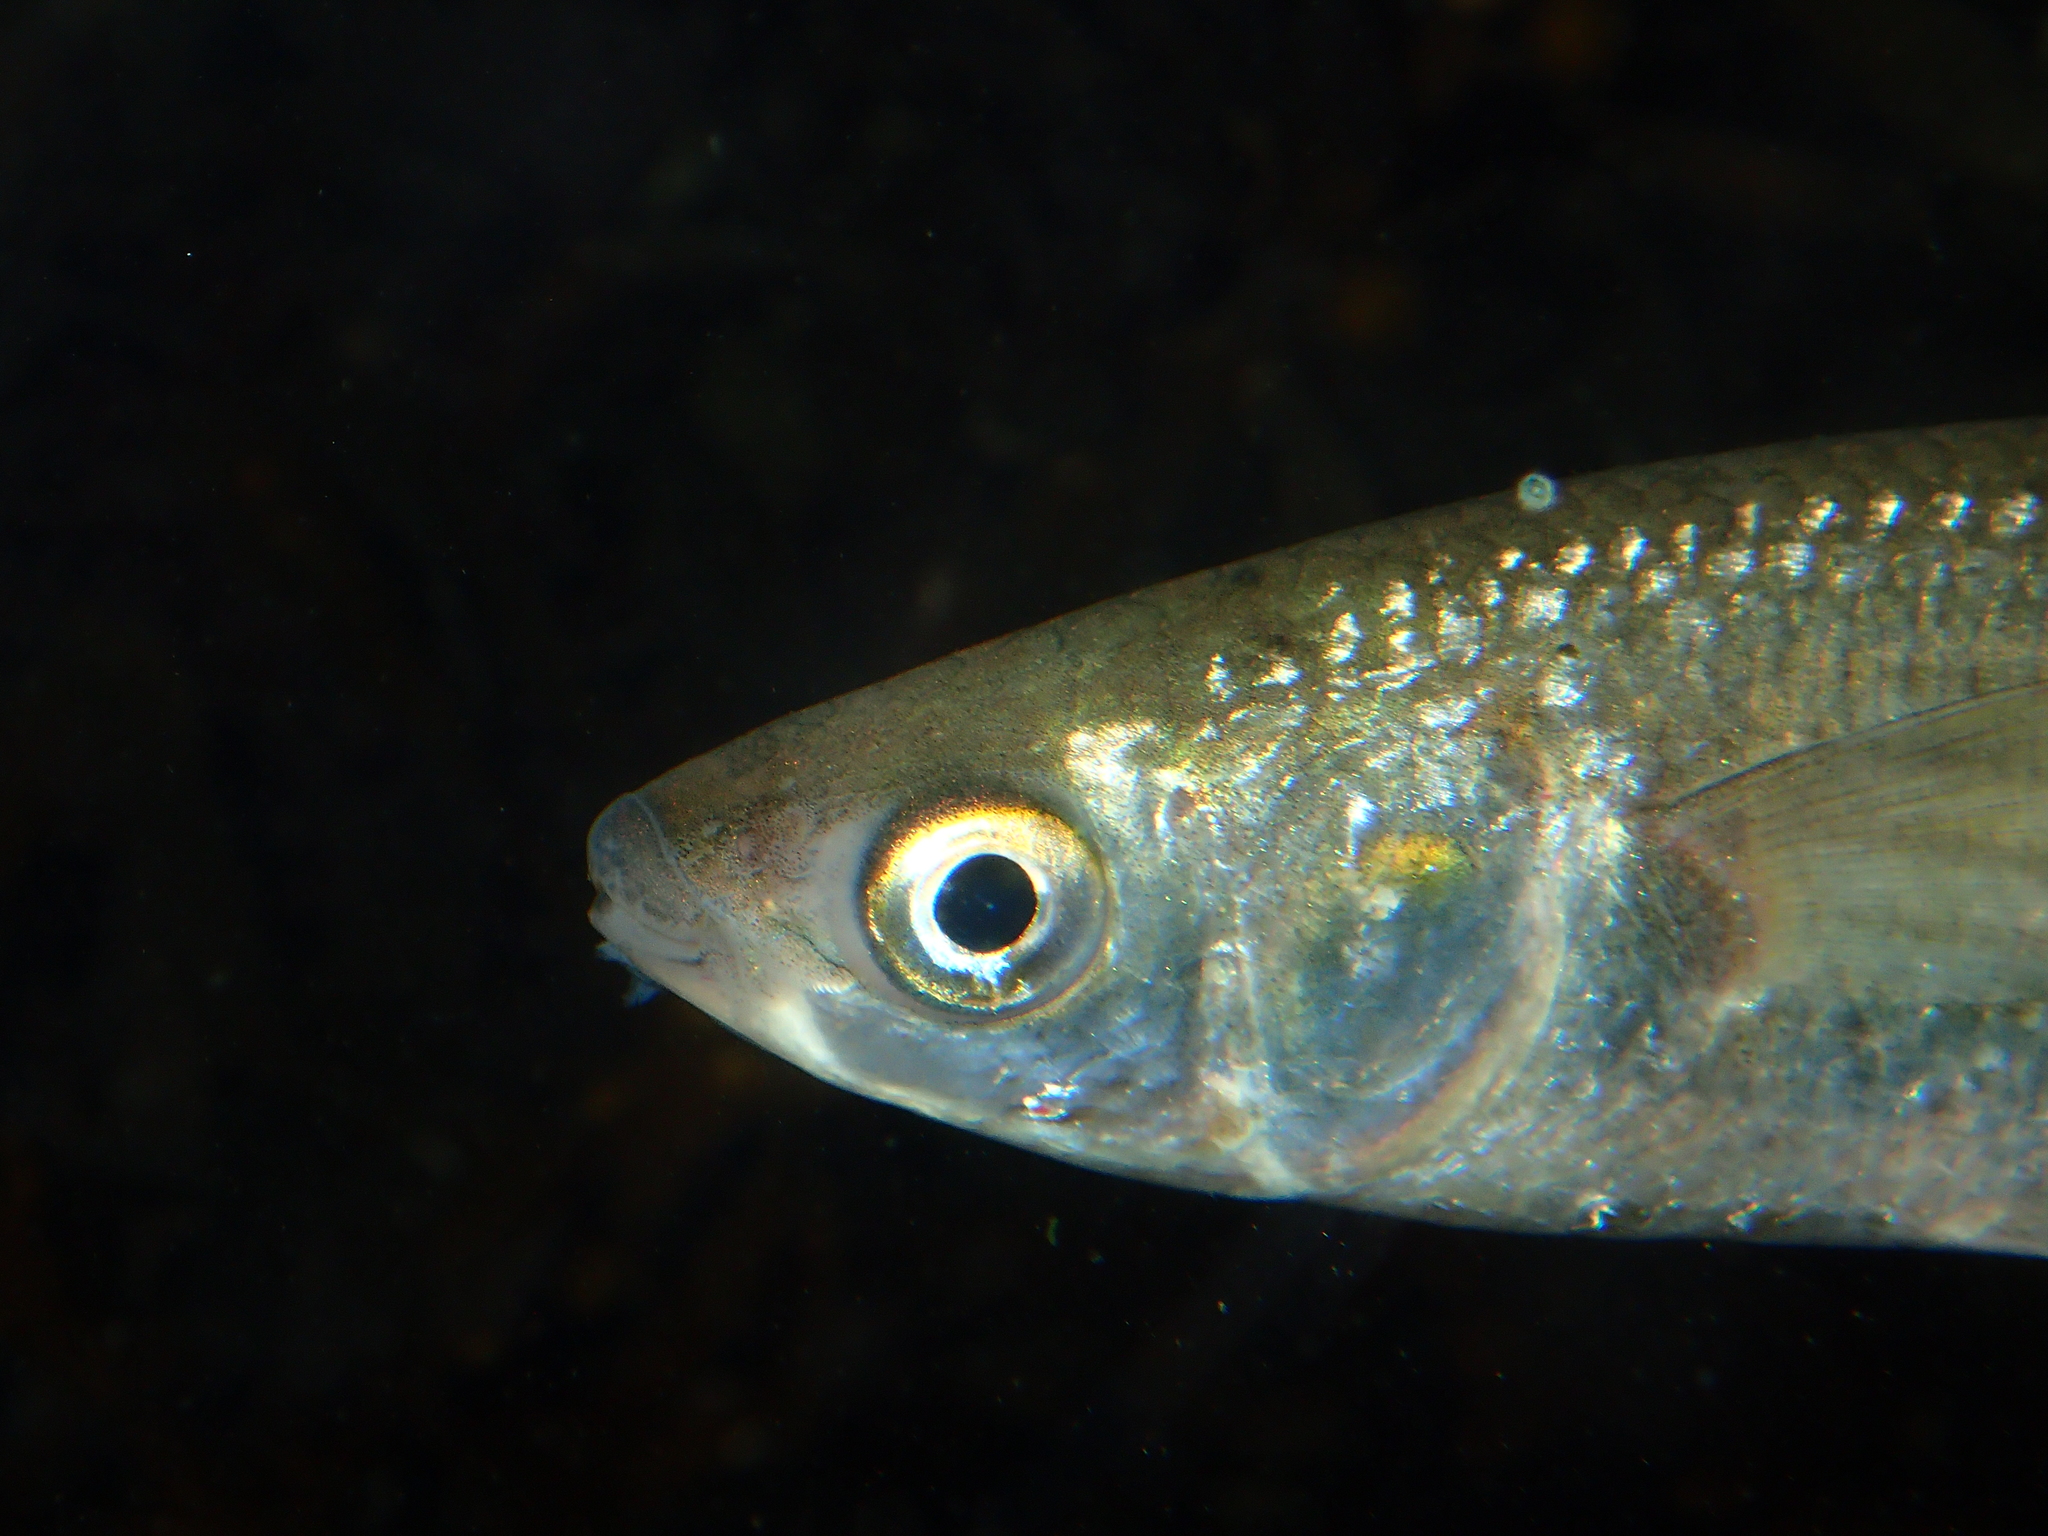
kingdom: Animalia
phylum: Chordata
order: Mugiliformes
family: Mugilidae
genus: Chelon
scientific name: Chelon labrosus
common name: Thick-lipped mullet
